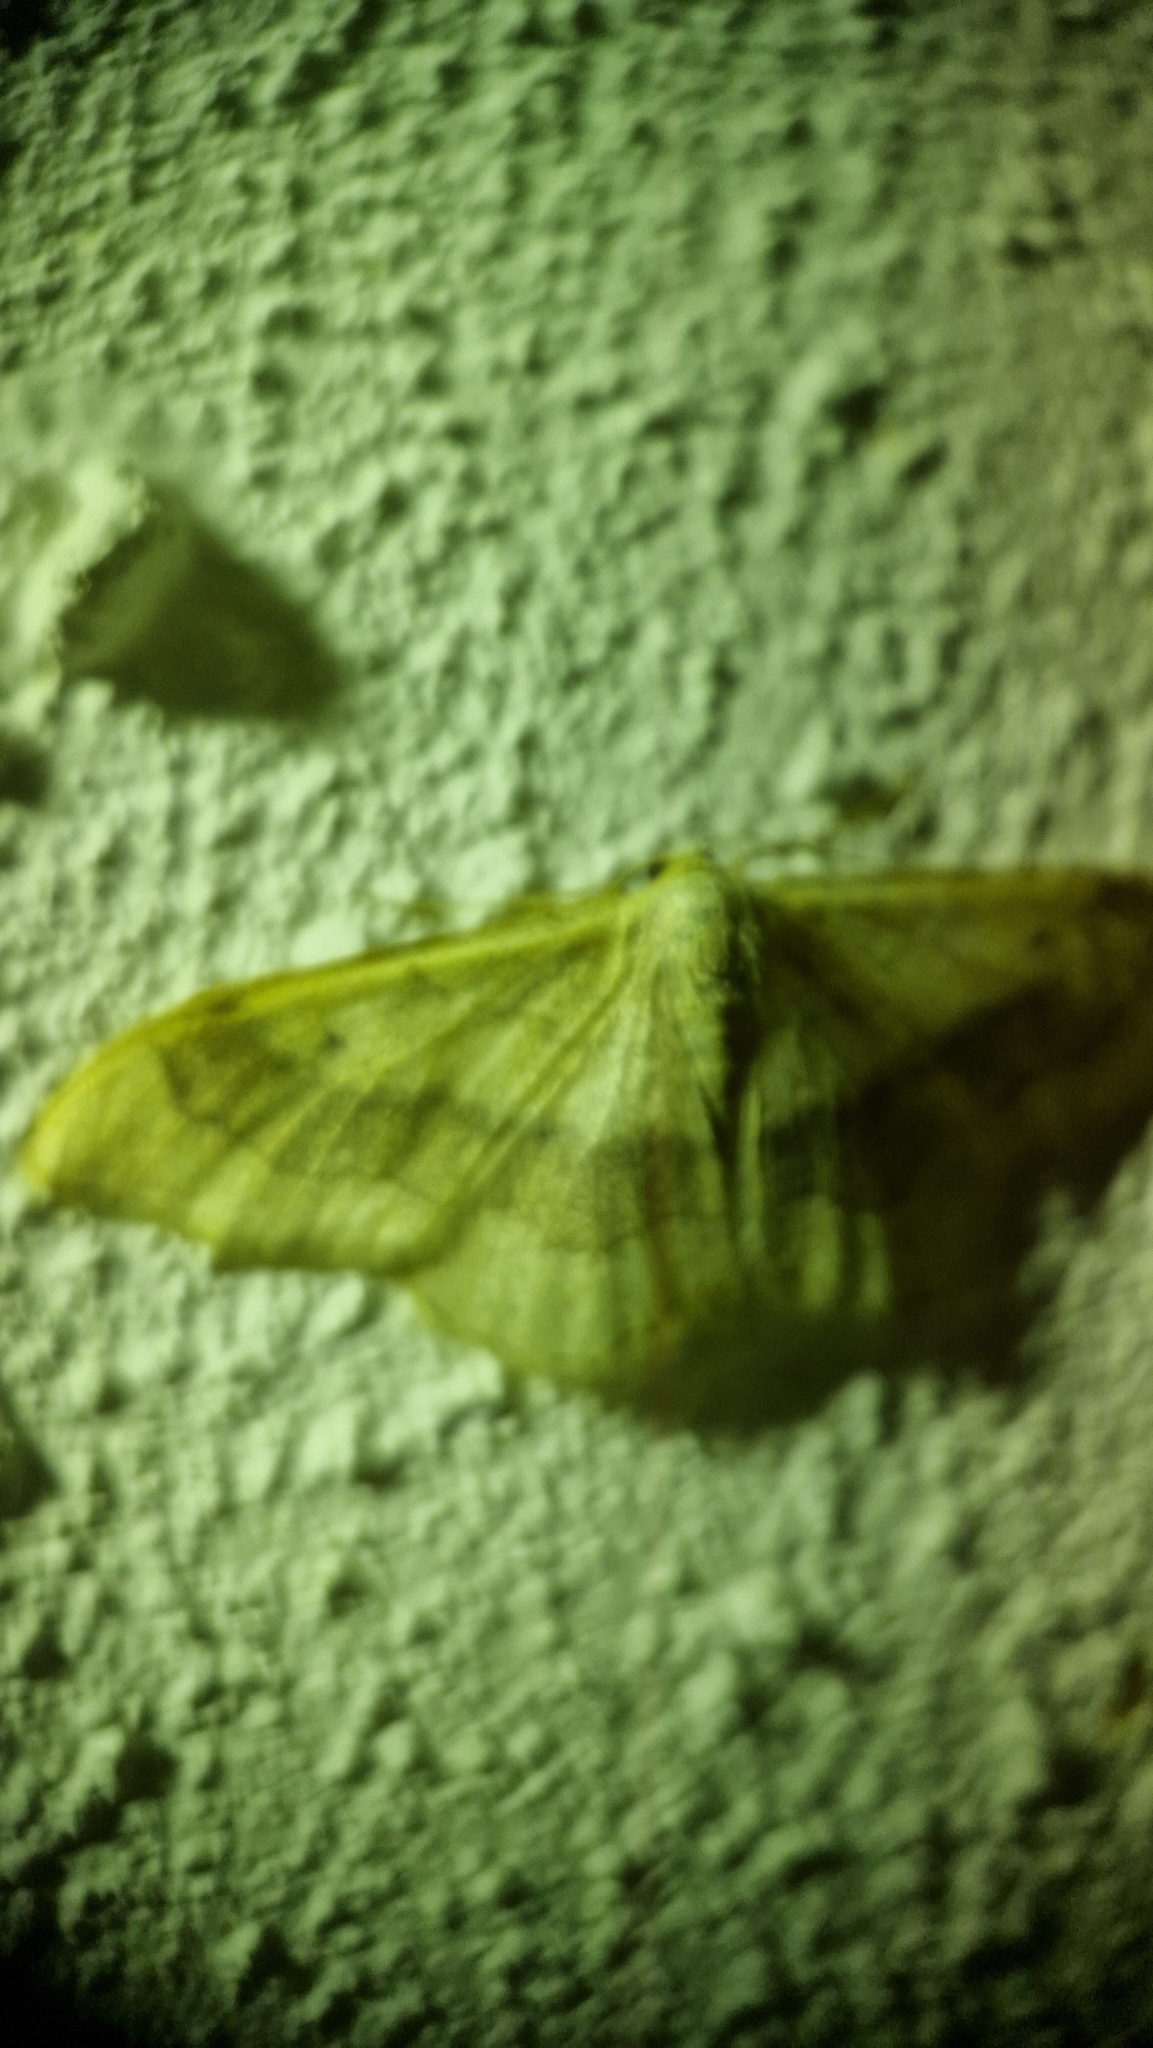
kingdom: Animalia
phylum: Arthropoda
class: Insecta
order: Lepidoptera
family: Geometridae
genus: Idaea
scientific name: Idaea aversata
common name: Riband wave
